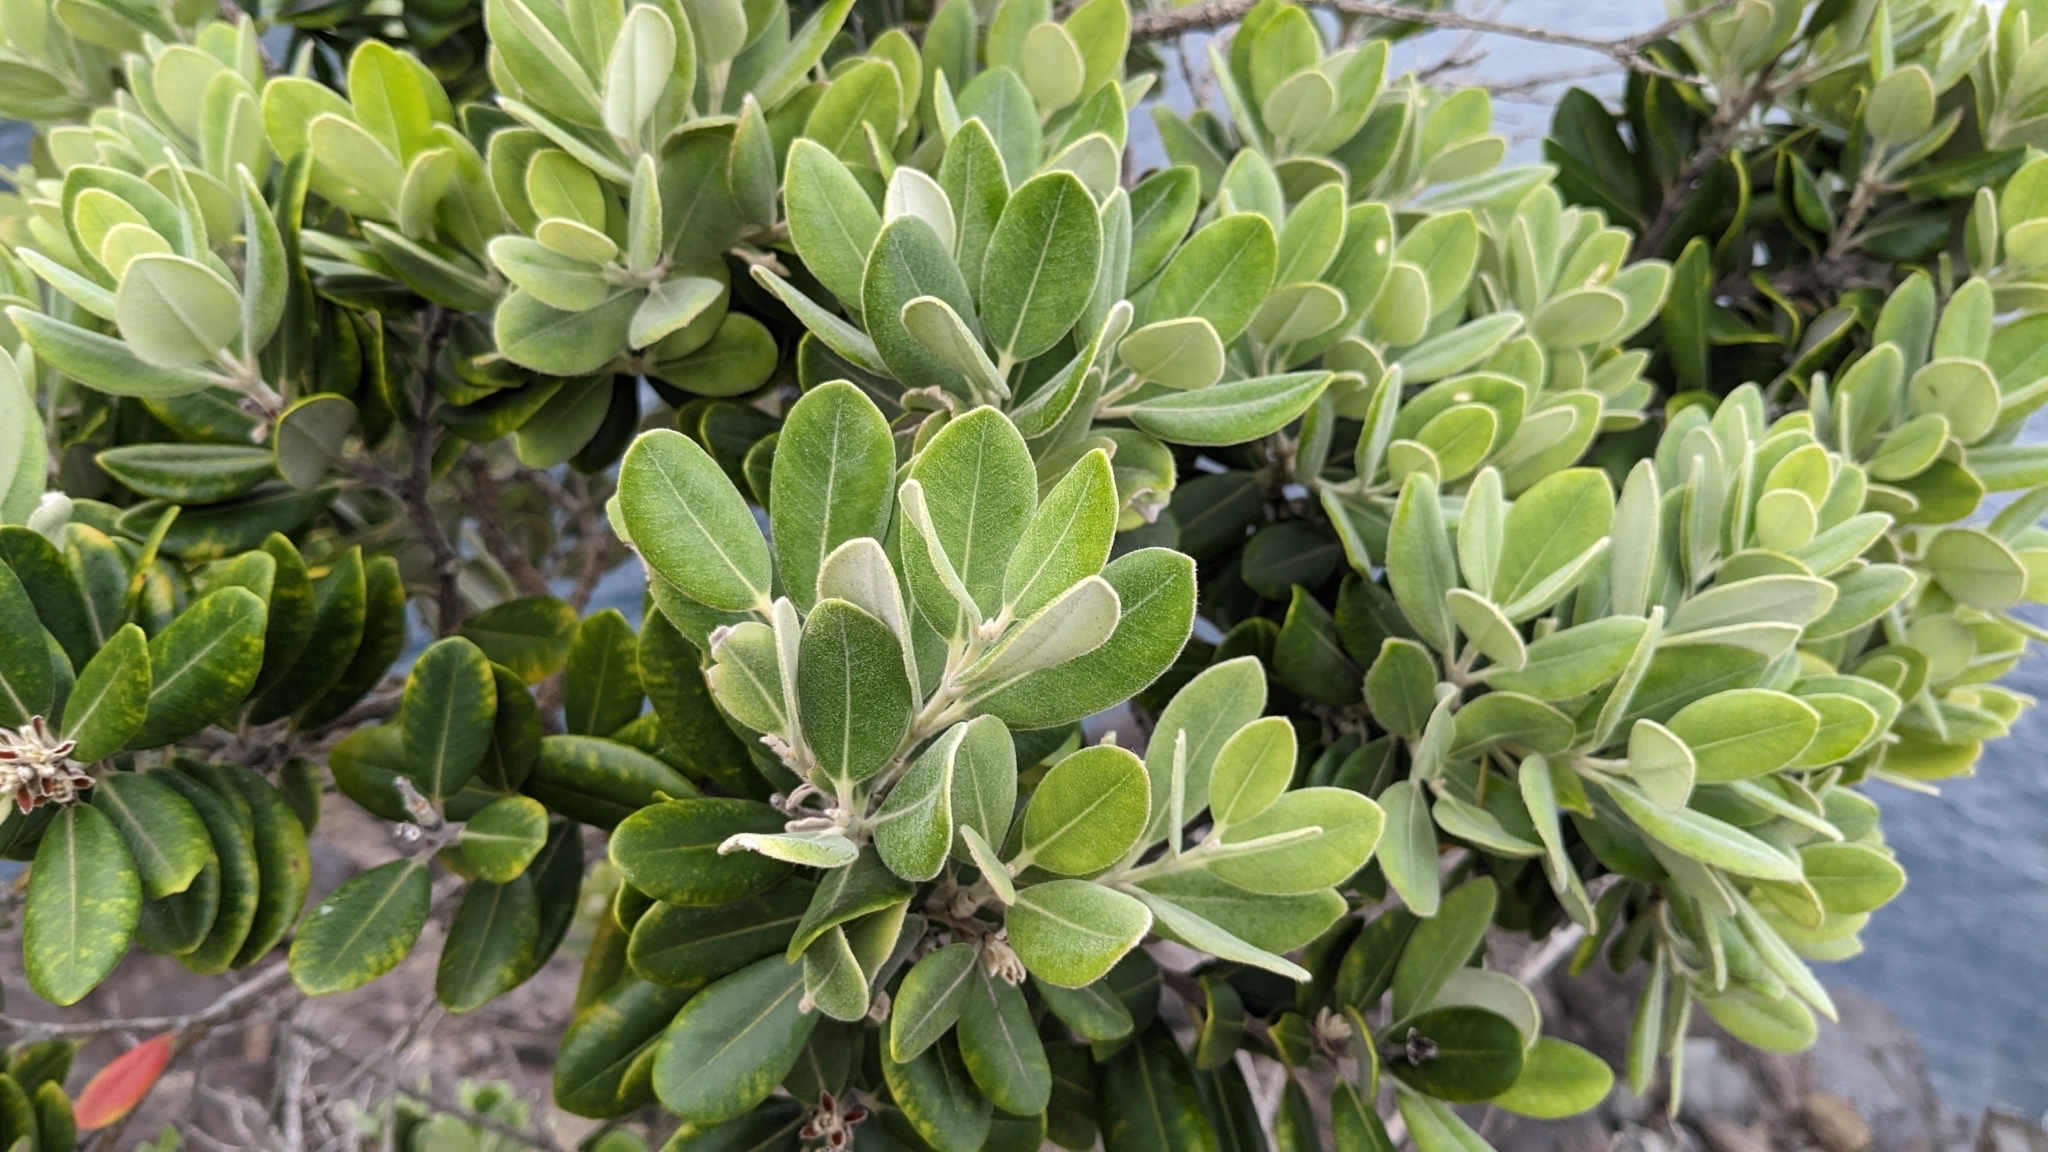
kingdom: Plantae
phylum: Tracheophyta
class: Magnoliopsida
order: Myrtales
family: Myrtaceae
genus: Metrosideros
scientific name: Metrosideros excelsa
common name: New zealand christmastree
